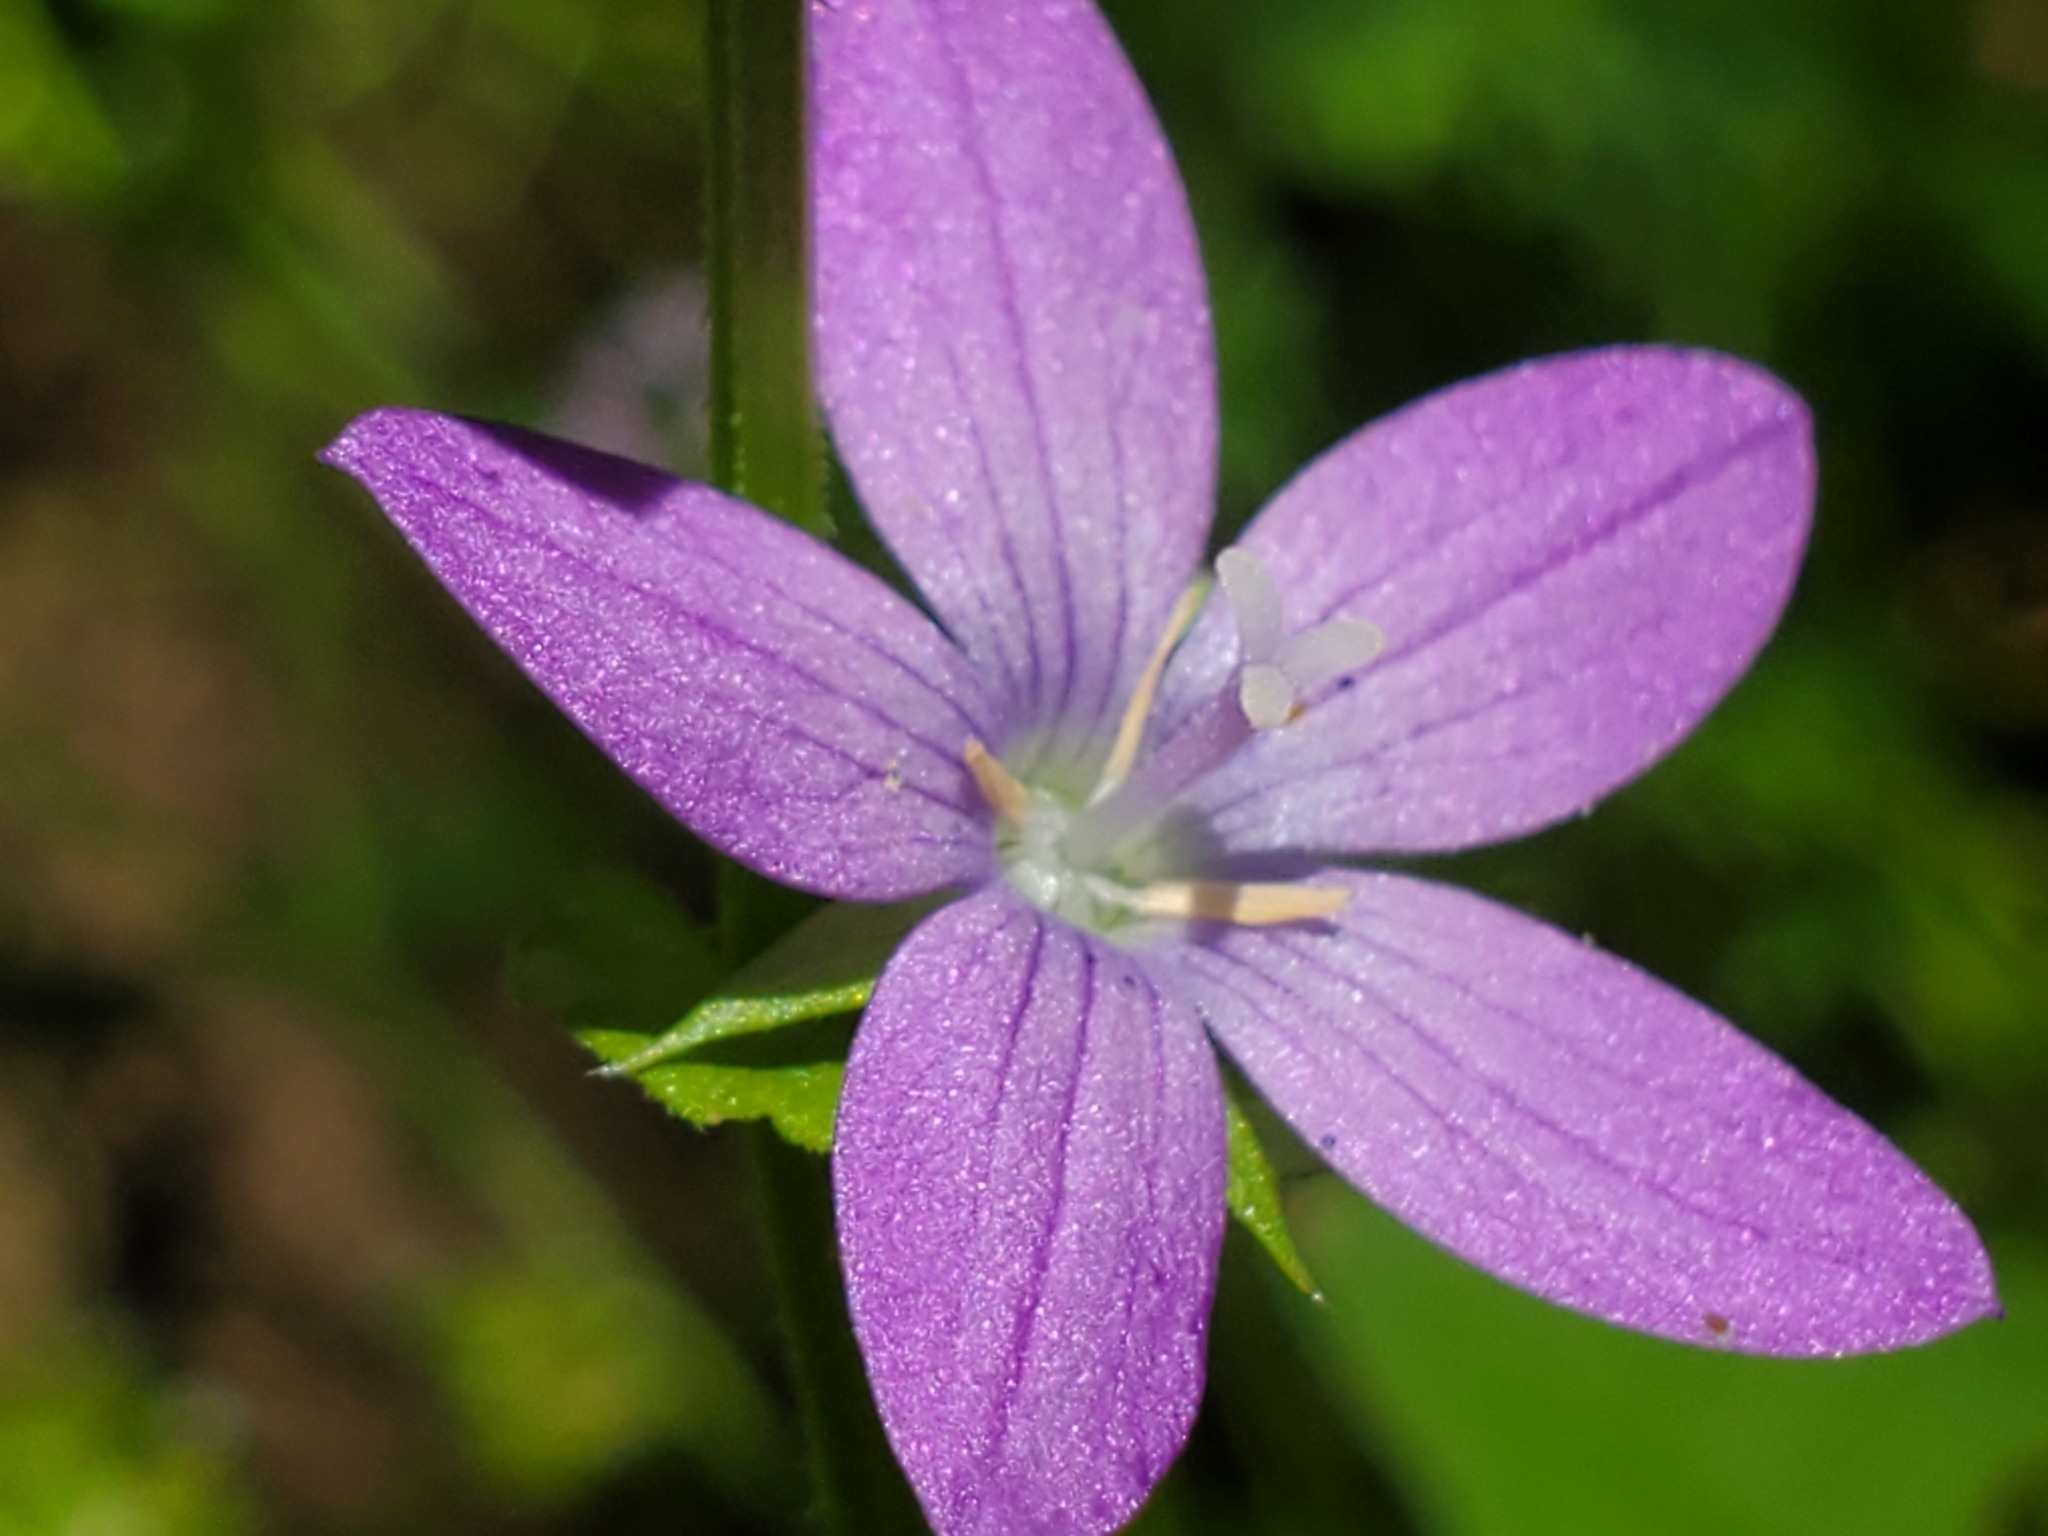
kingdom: Plantae
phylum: Tracheophyta
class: Magnoliopsida
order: Asterales
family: Campanulaceae
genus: Triodanis
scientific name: Triodanis perfoliata
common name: Clasping venus' looking-glass
